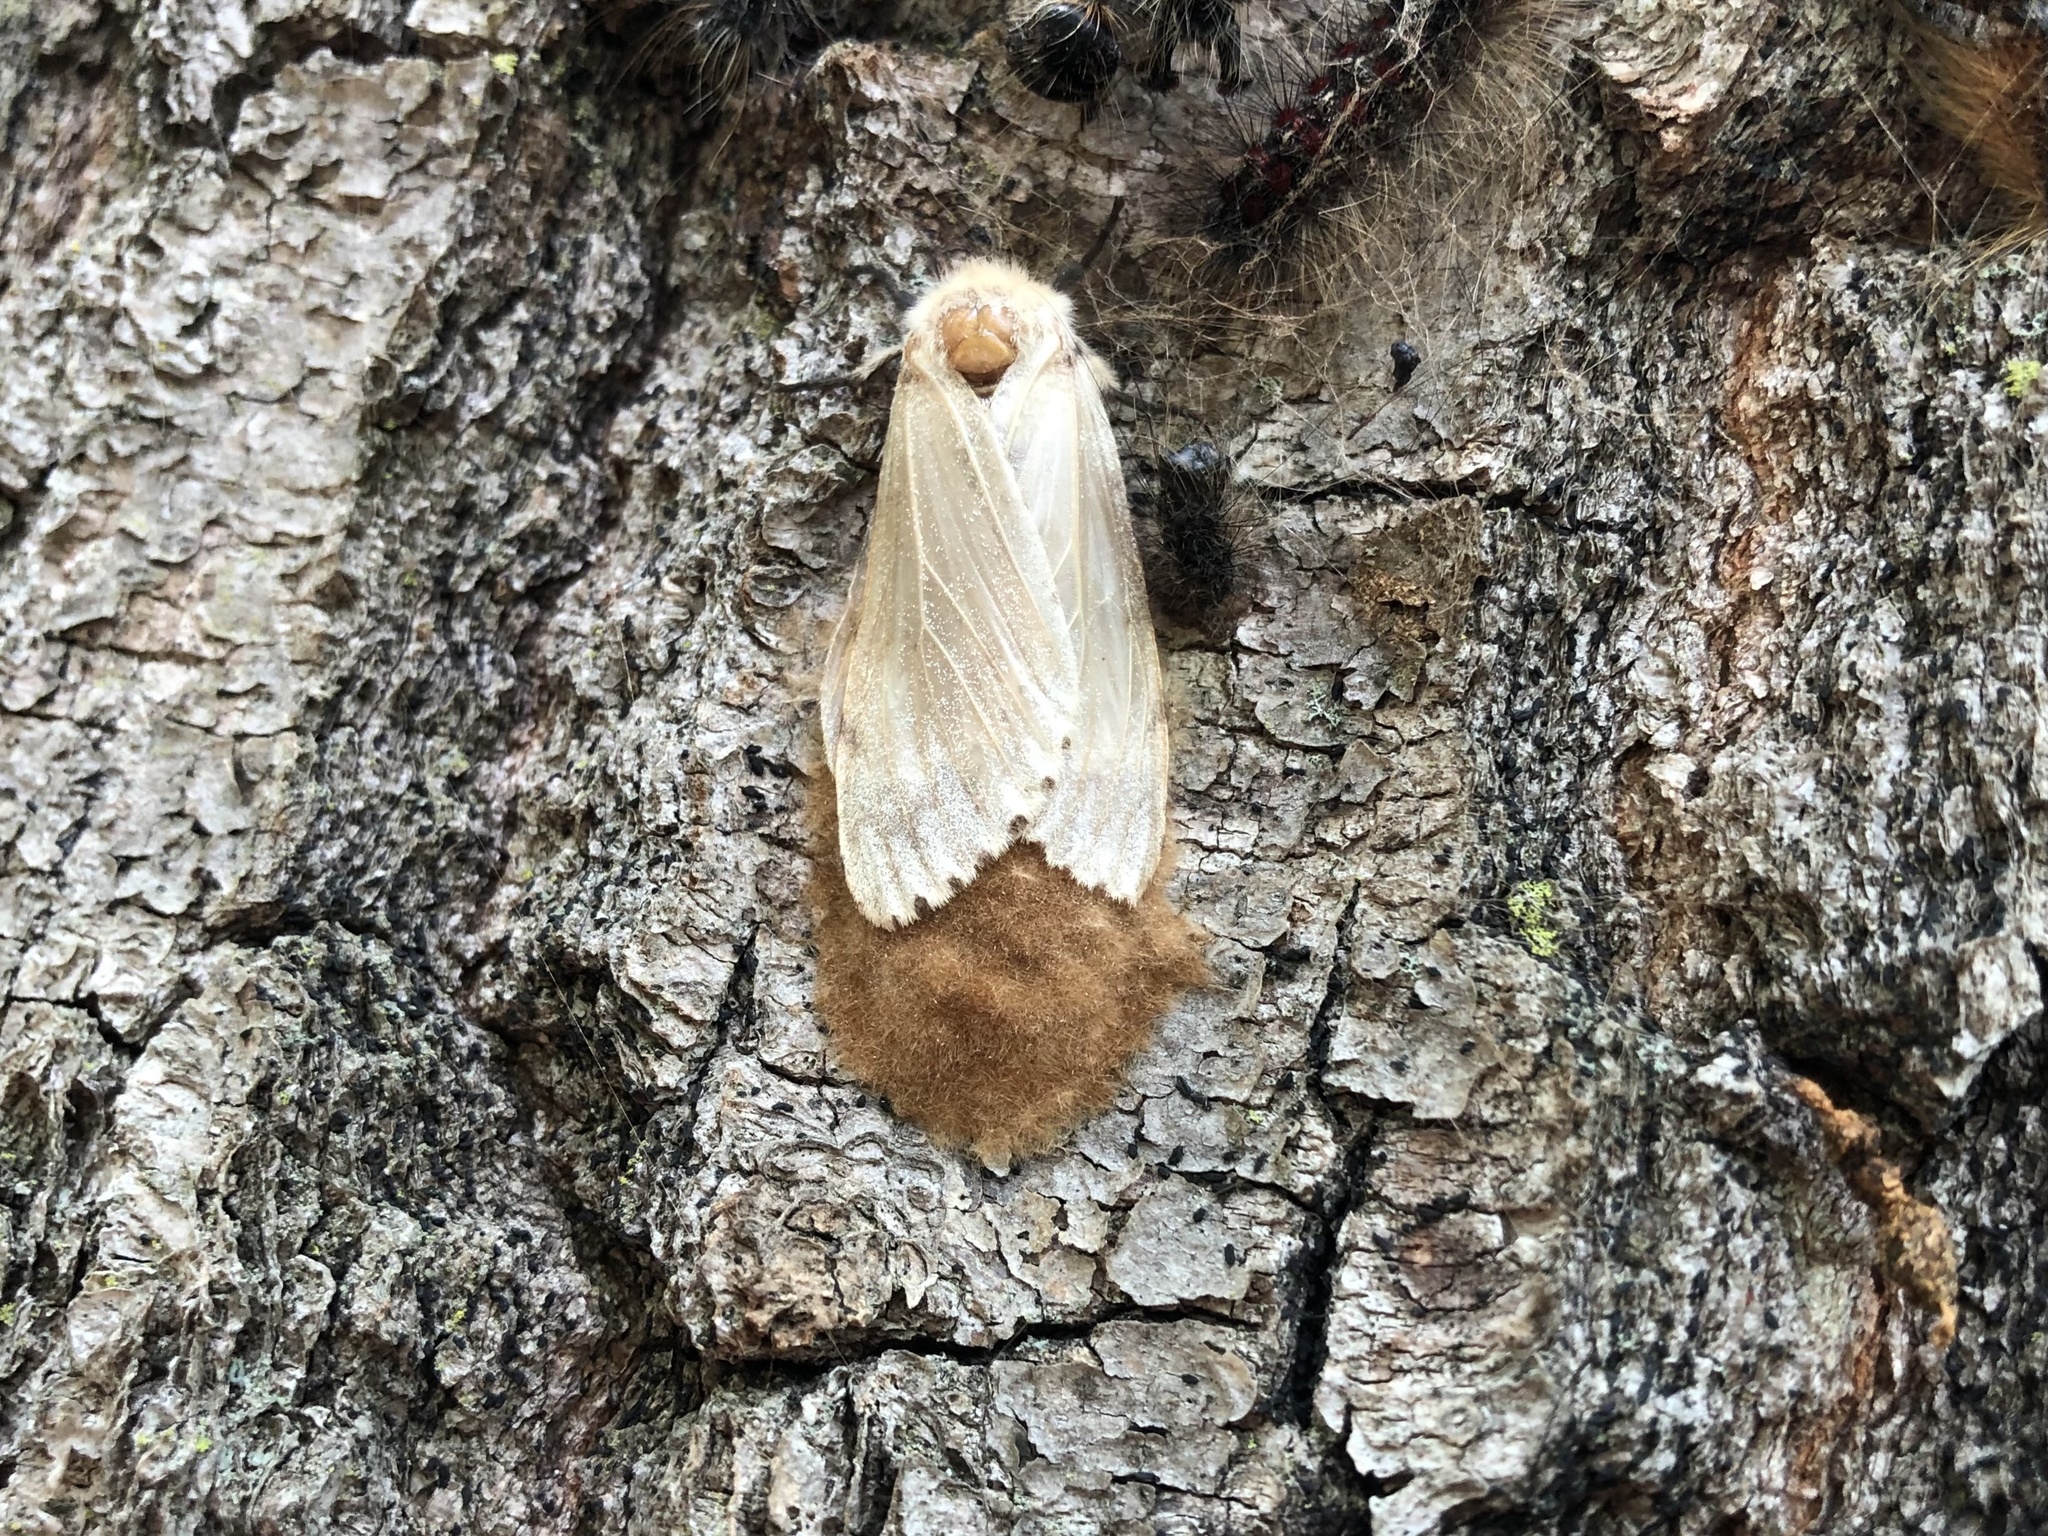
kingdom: Animalia
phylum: Arthropoda
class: Insecta
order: Lepidoptera
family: Erebidae
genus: Lymantria
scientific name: Lymantria dispar
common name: Gypsy moth
